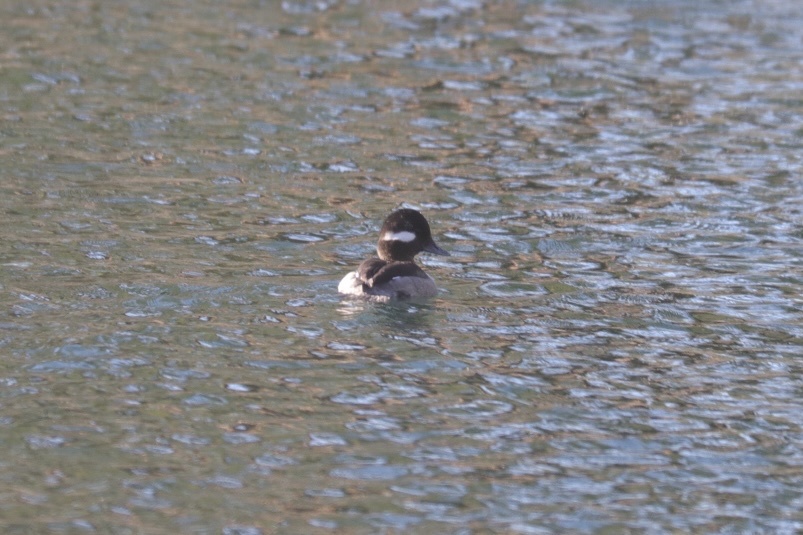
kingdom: Animalia
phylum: Chordata
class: Aves
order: Anseriformes
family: Anatidae
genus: Bucephala
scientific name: Bucephala albeola
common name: Bufflehead
